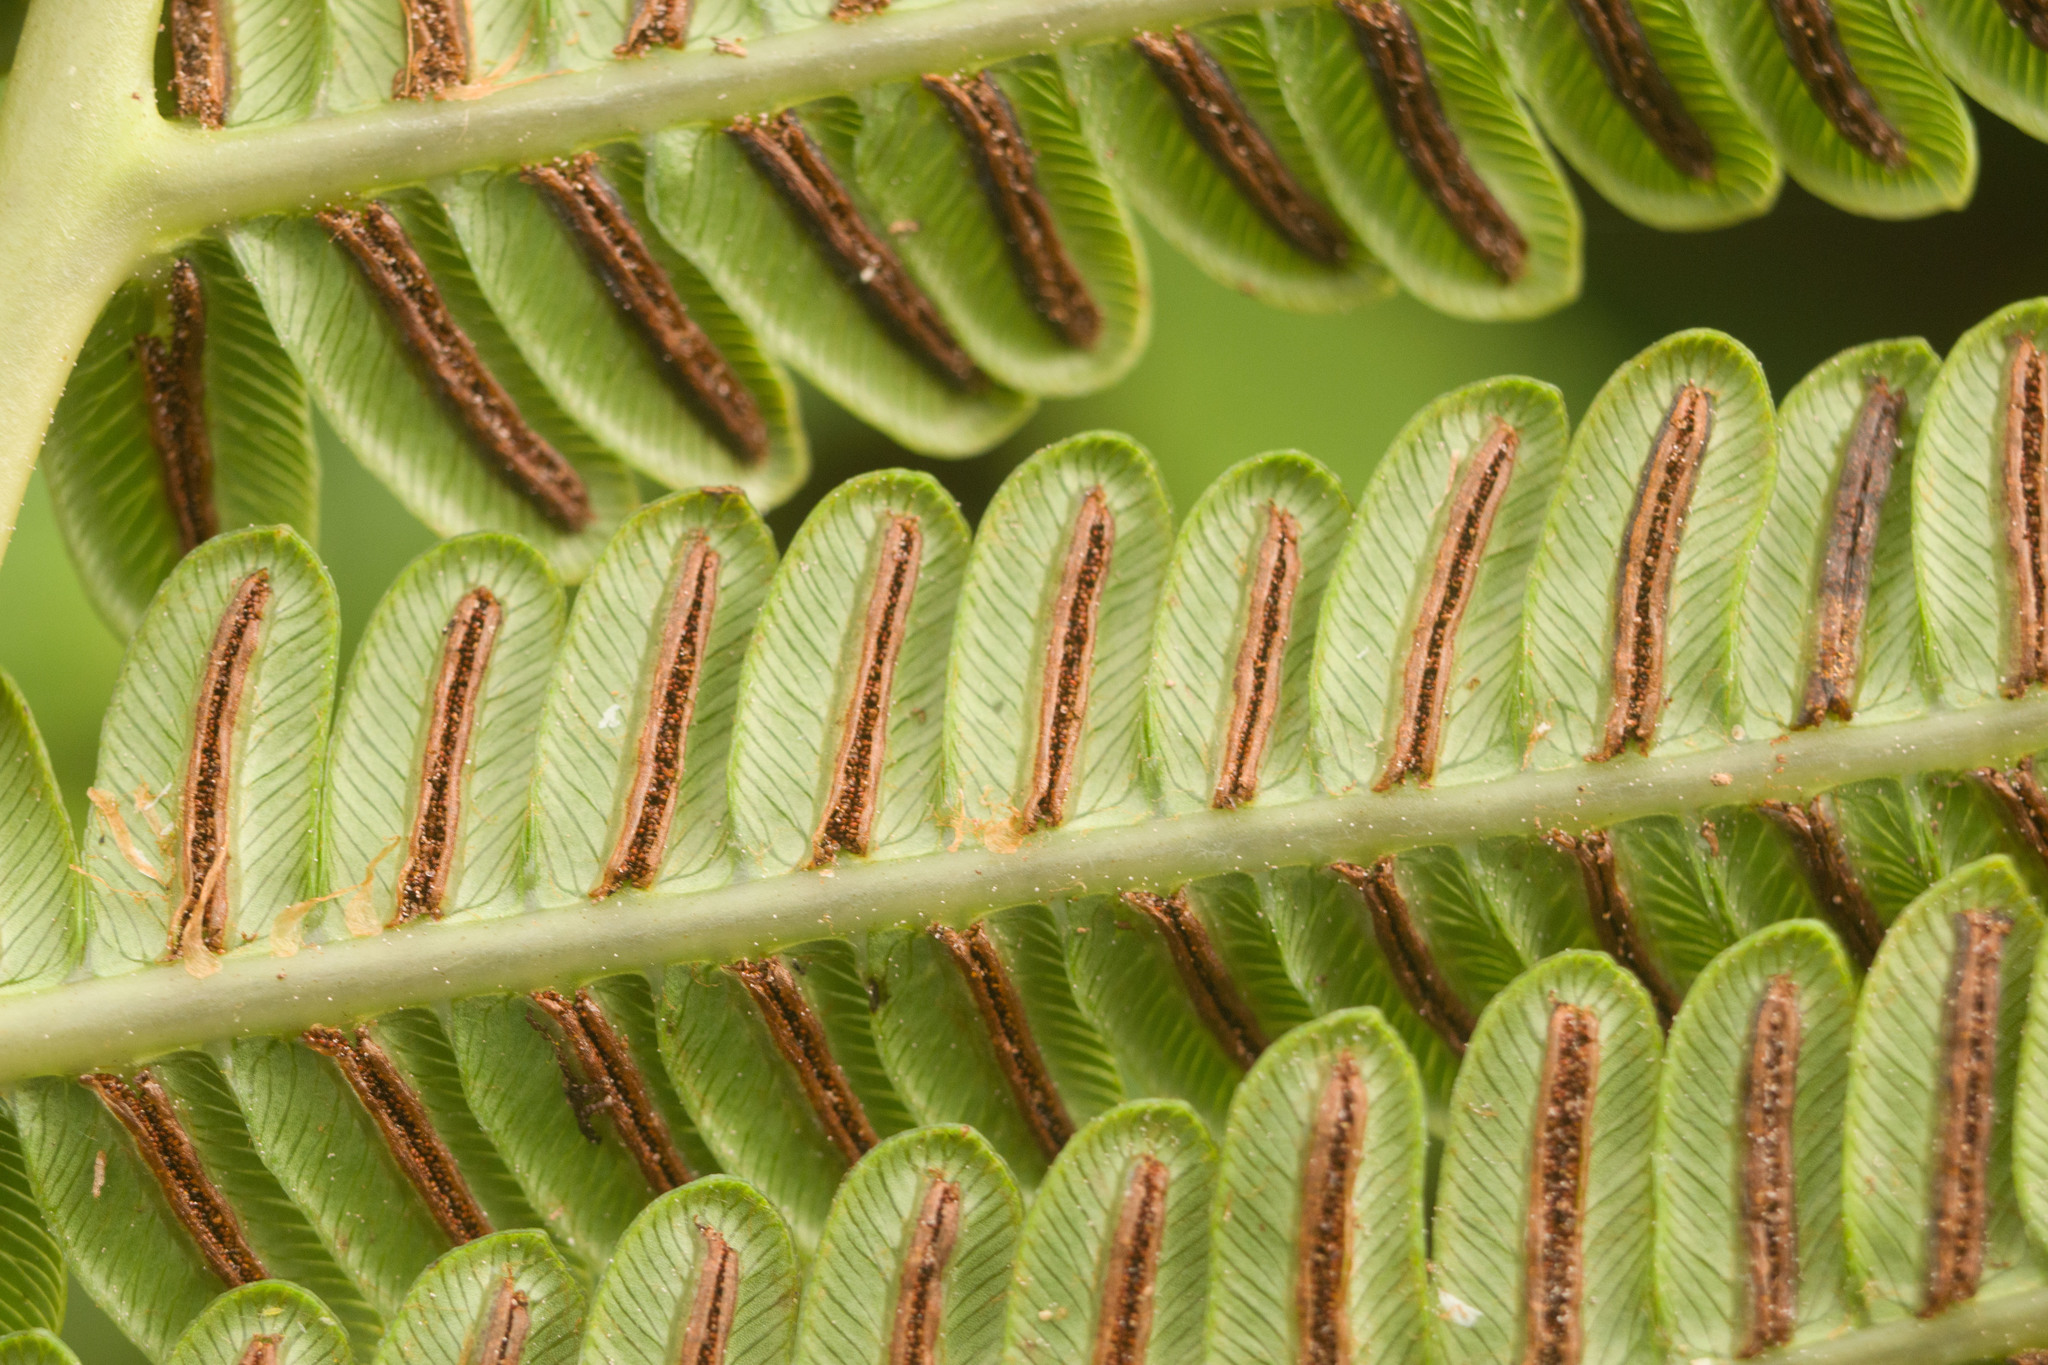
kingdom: Plantae
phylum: Tracheophyta
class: Polypodiopsida
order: Polypodiales
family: Blechnaceae
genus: Sadleria
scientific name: Sadleria pallida
